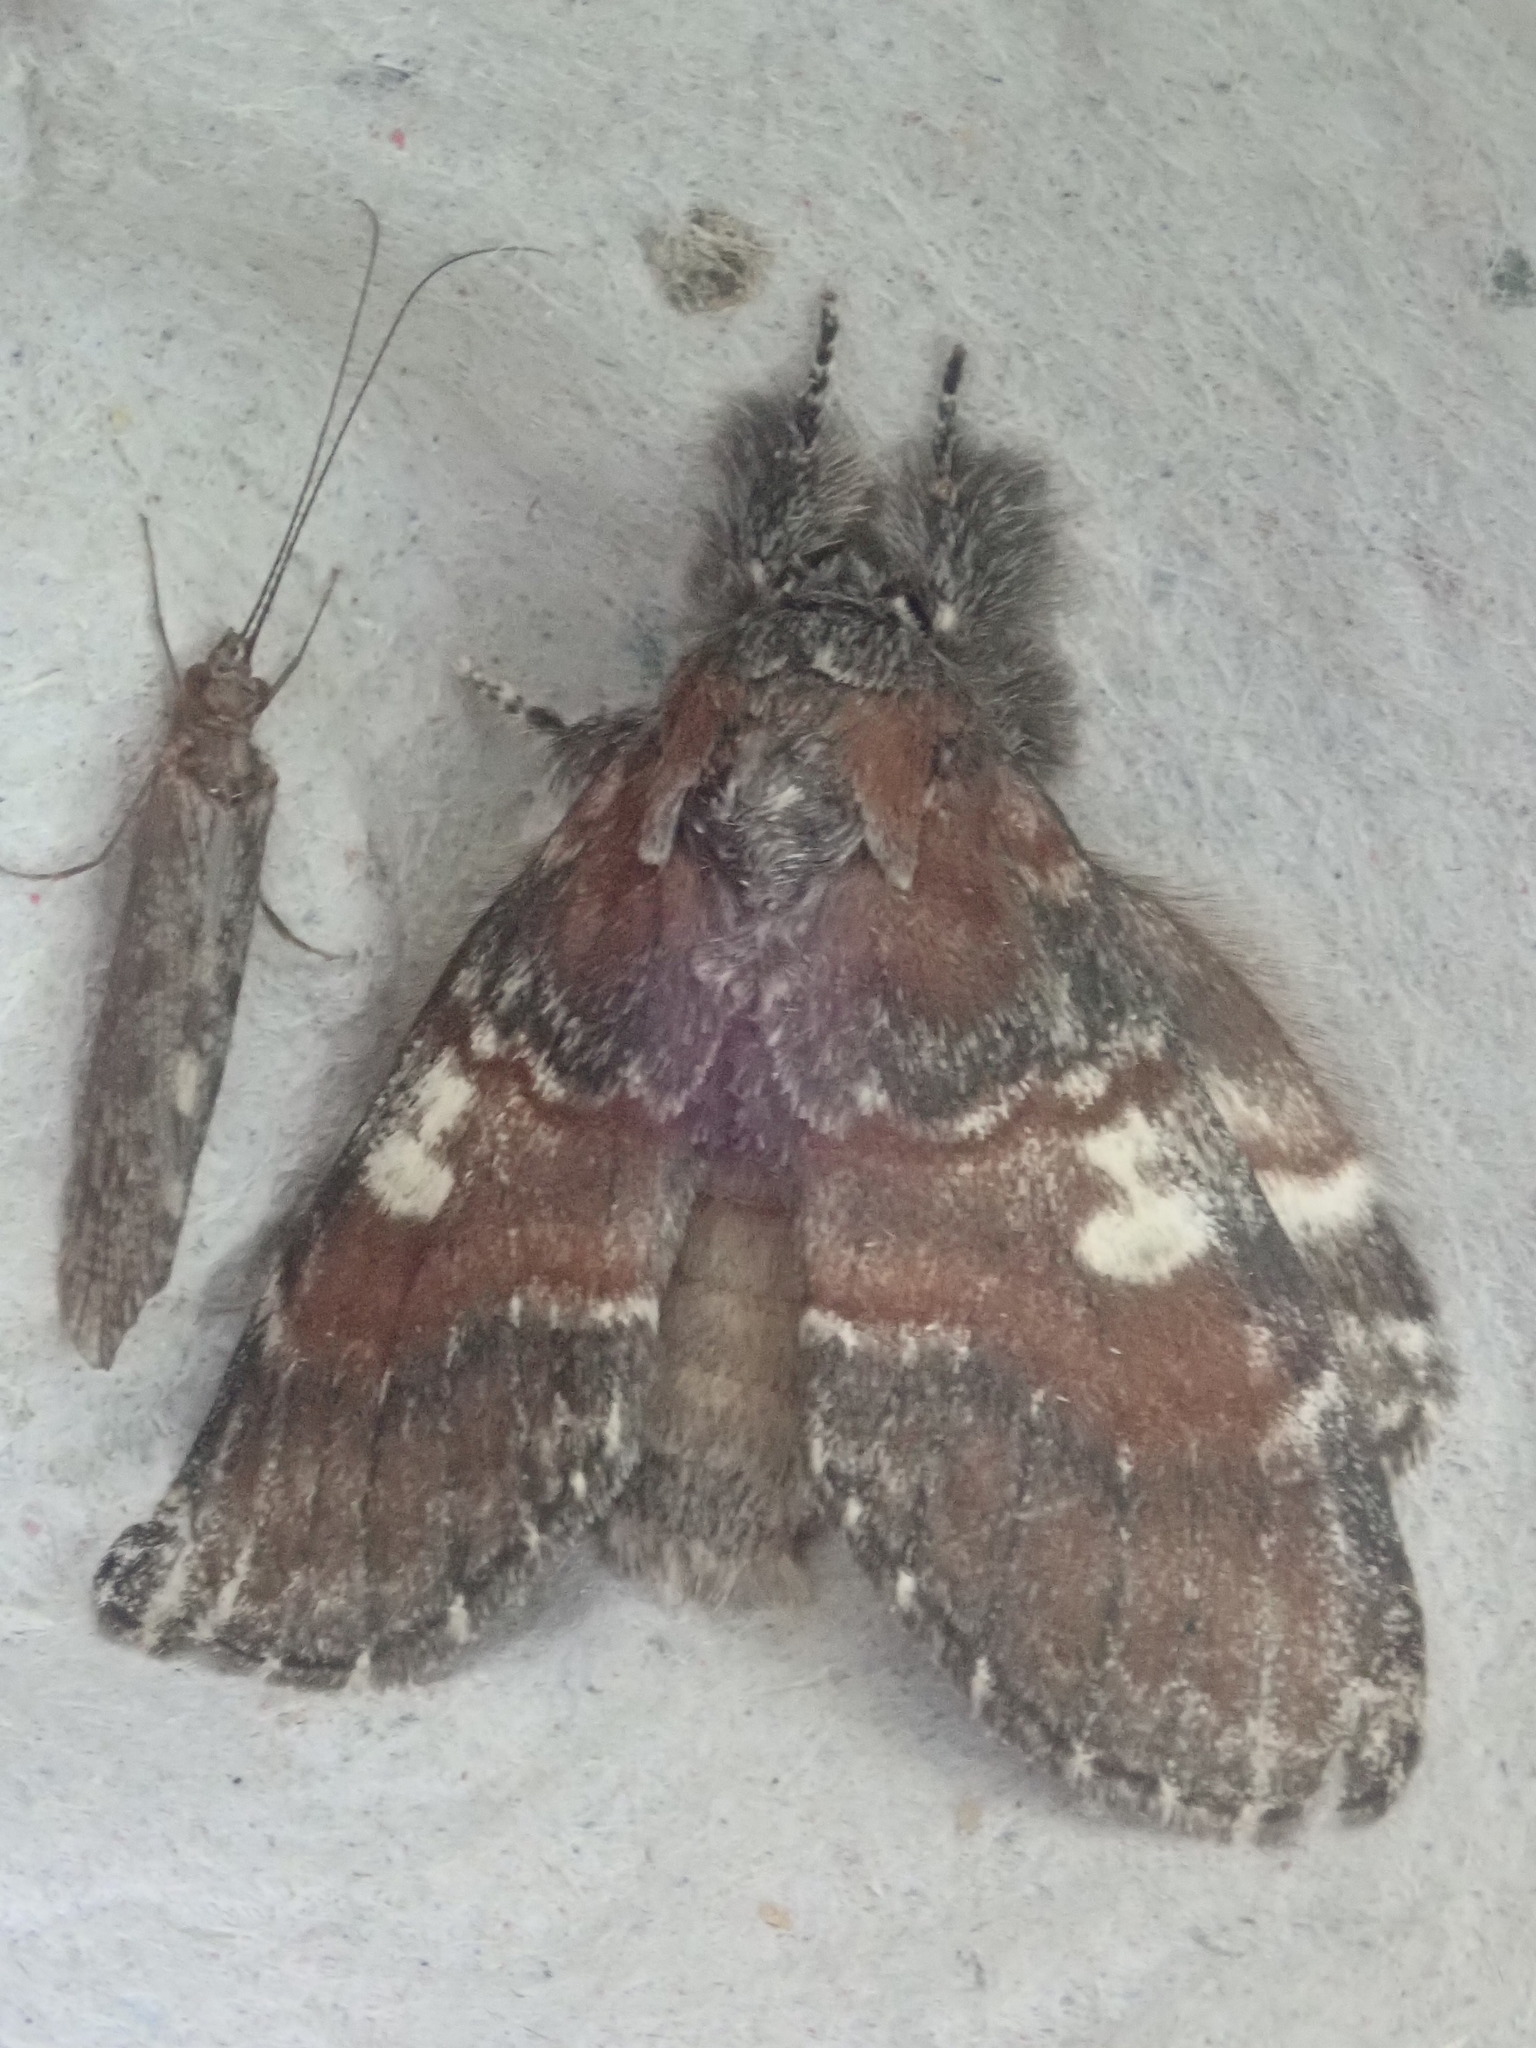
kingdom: Animalia
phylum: Arthropoda
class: Insecta
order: Lepidoptera
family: Notodontidae
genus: Peridea
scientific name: Peridea ferruginea
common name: Chocolate prominent
